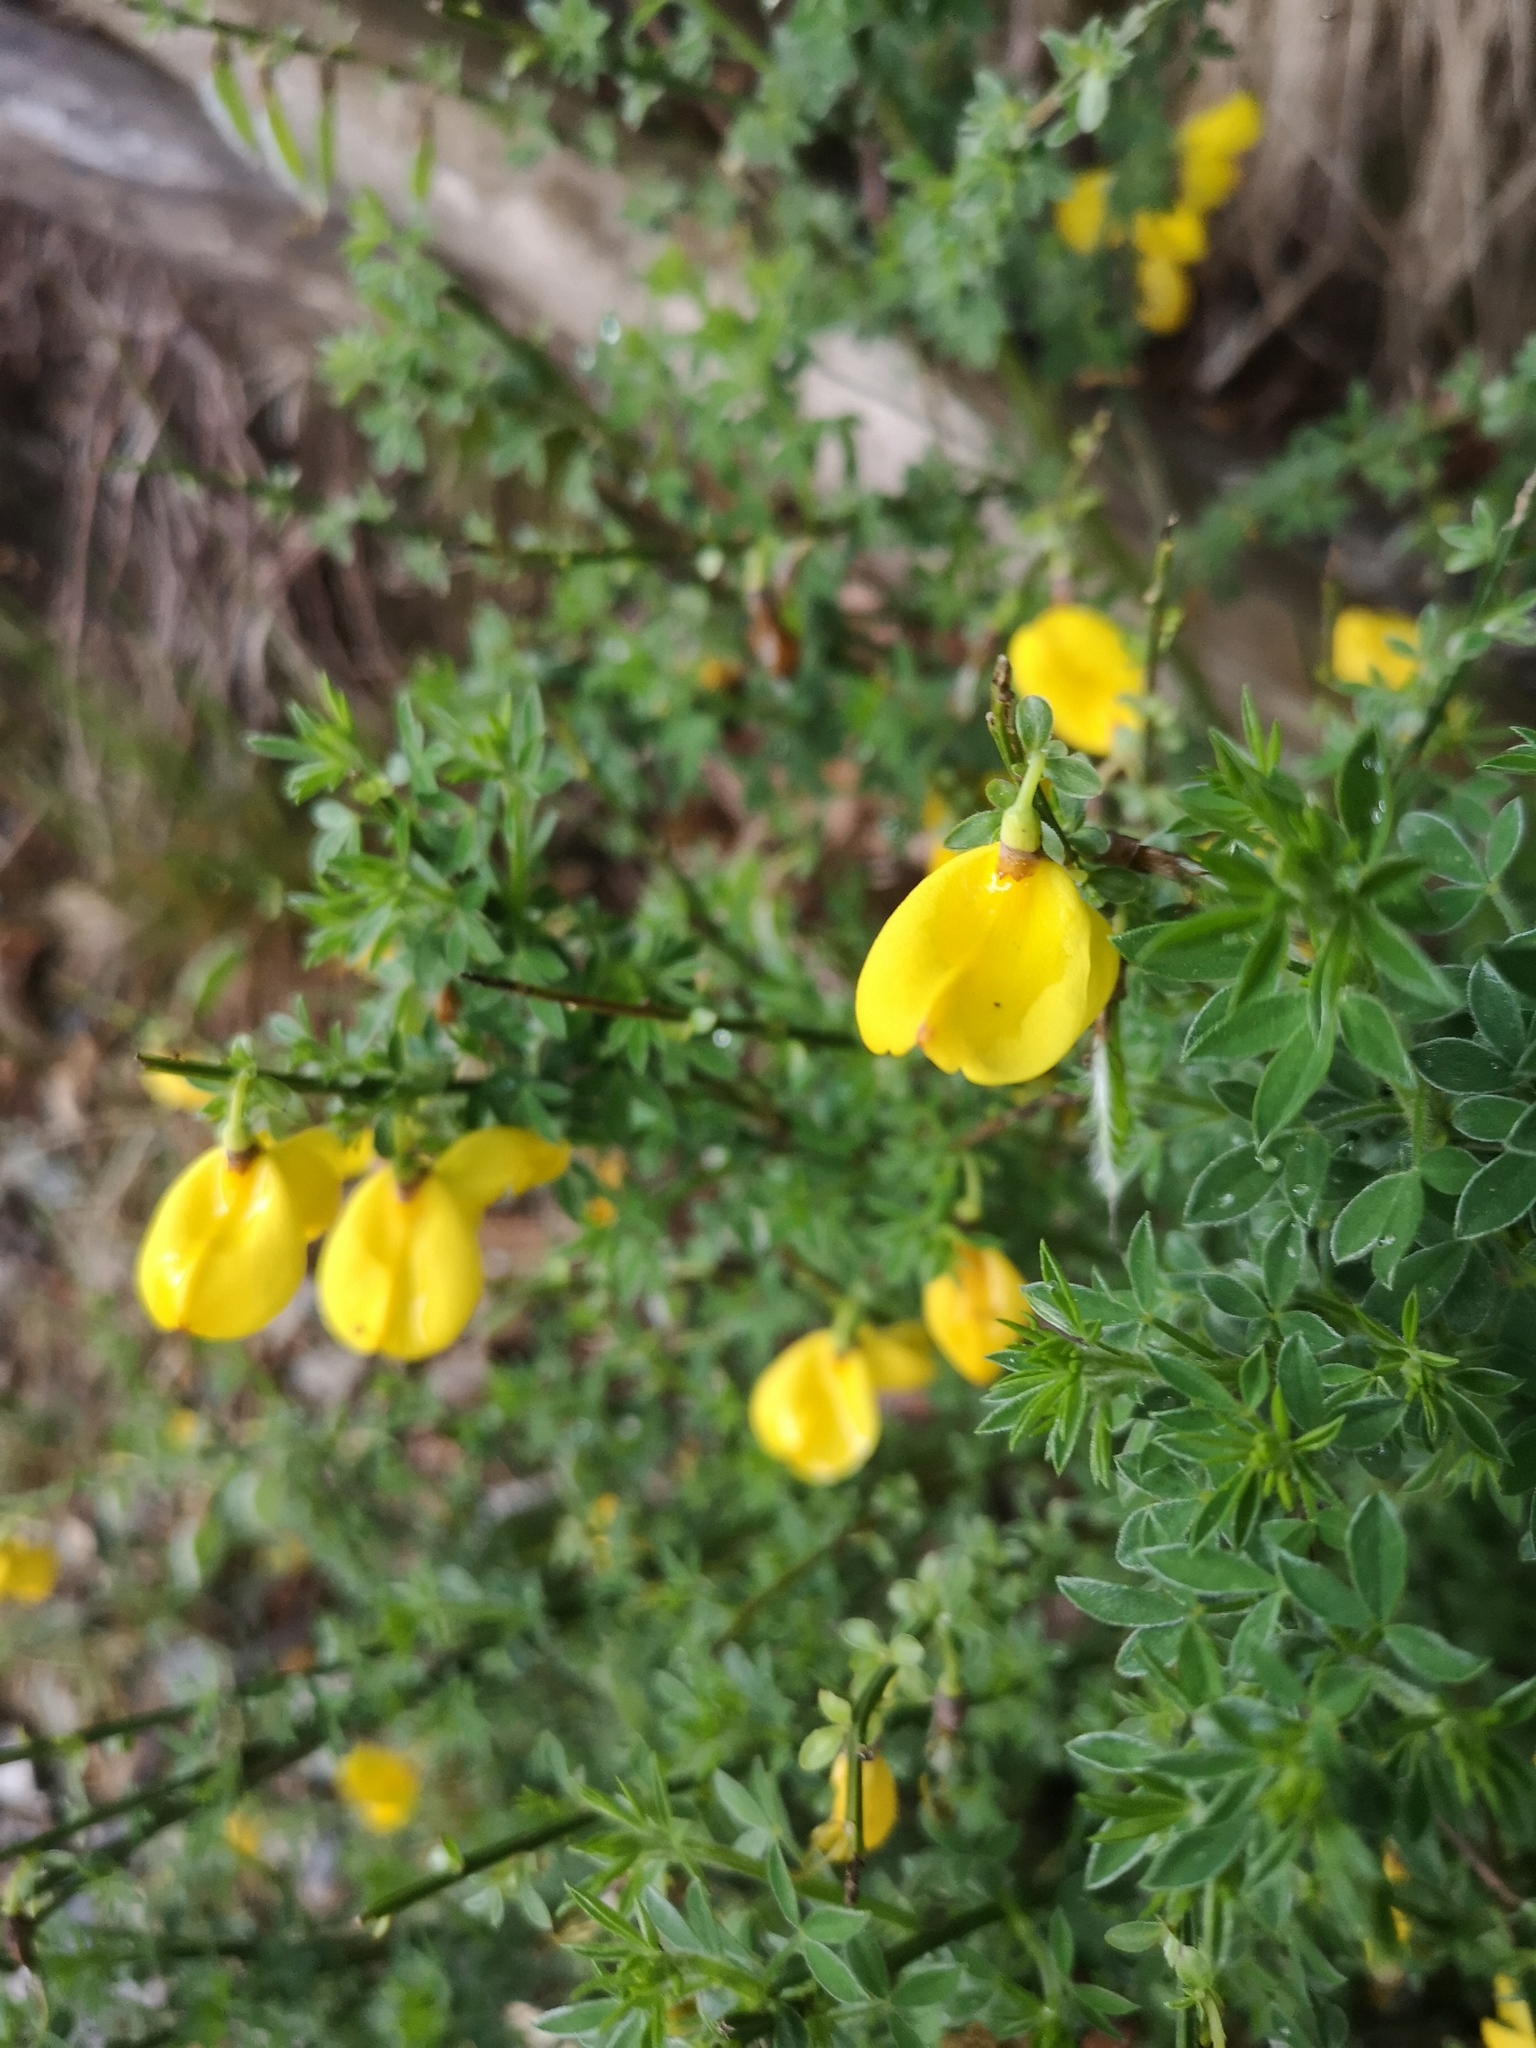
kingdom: Plantae
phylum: Tracheophyta
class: Magnoliopsida
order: Fabales
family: Fabaceae
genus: Cytisus
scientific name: Cytisus scoparius
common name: Scotch broom
